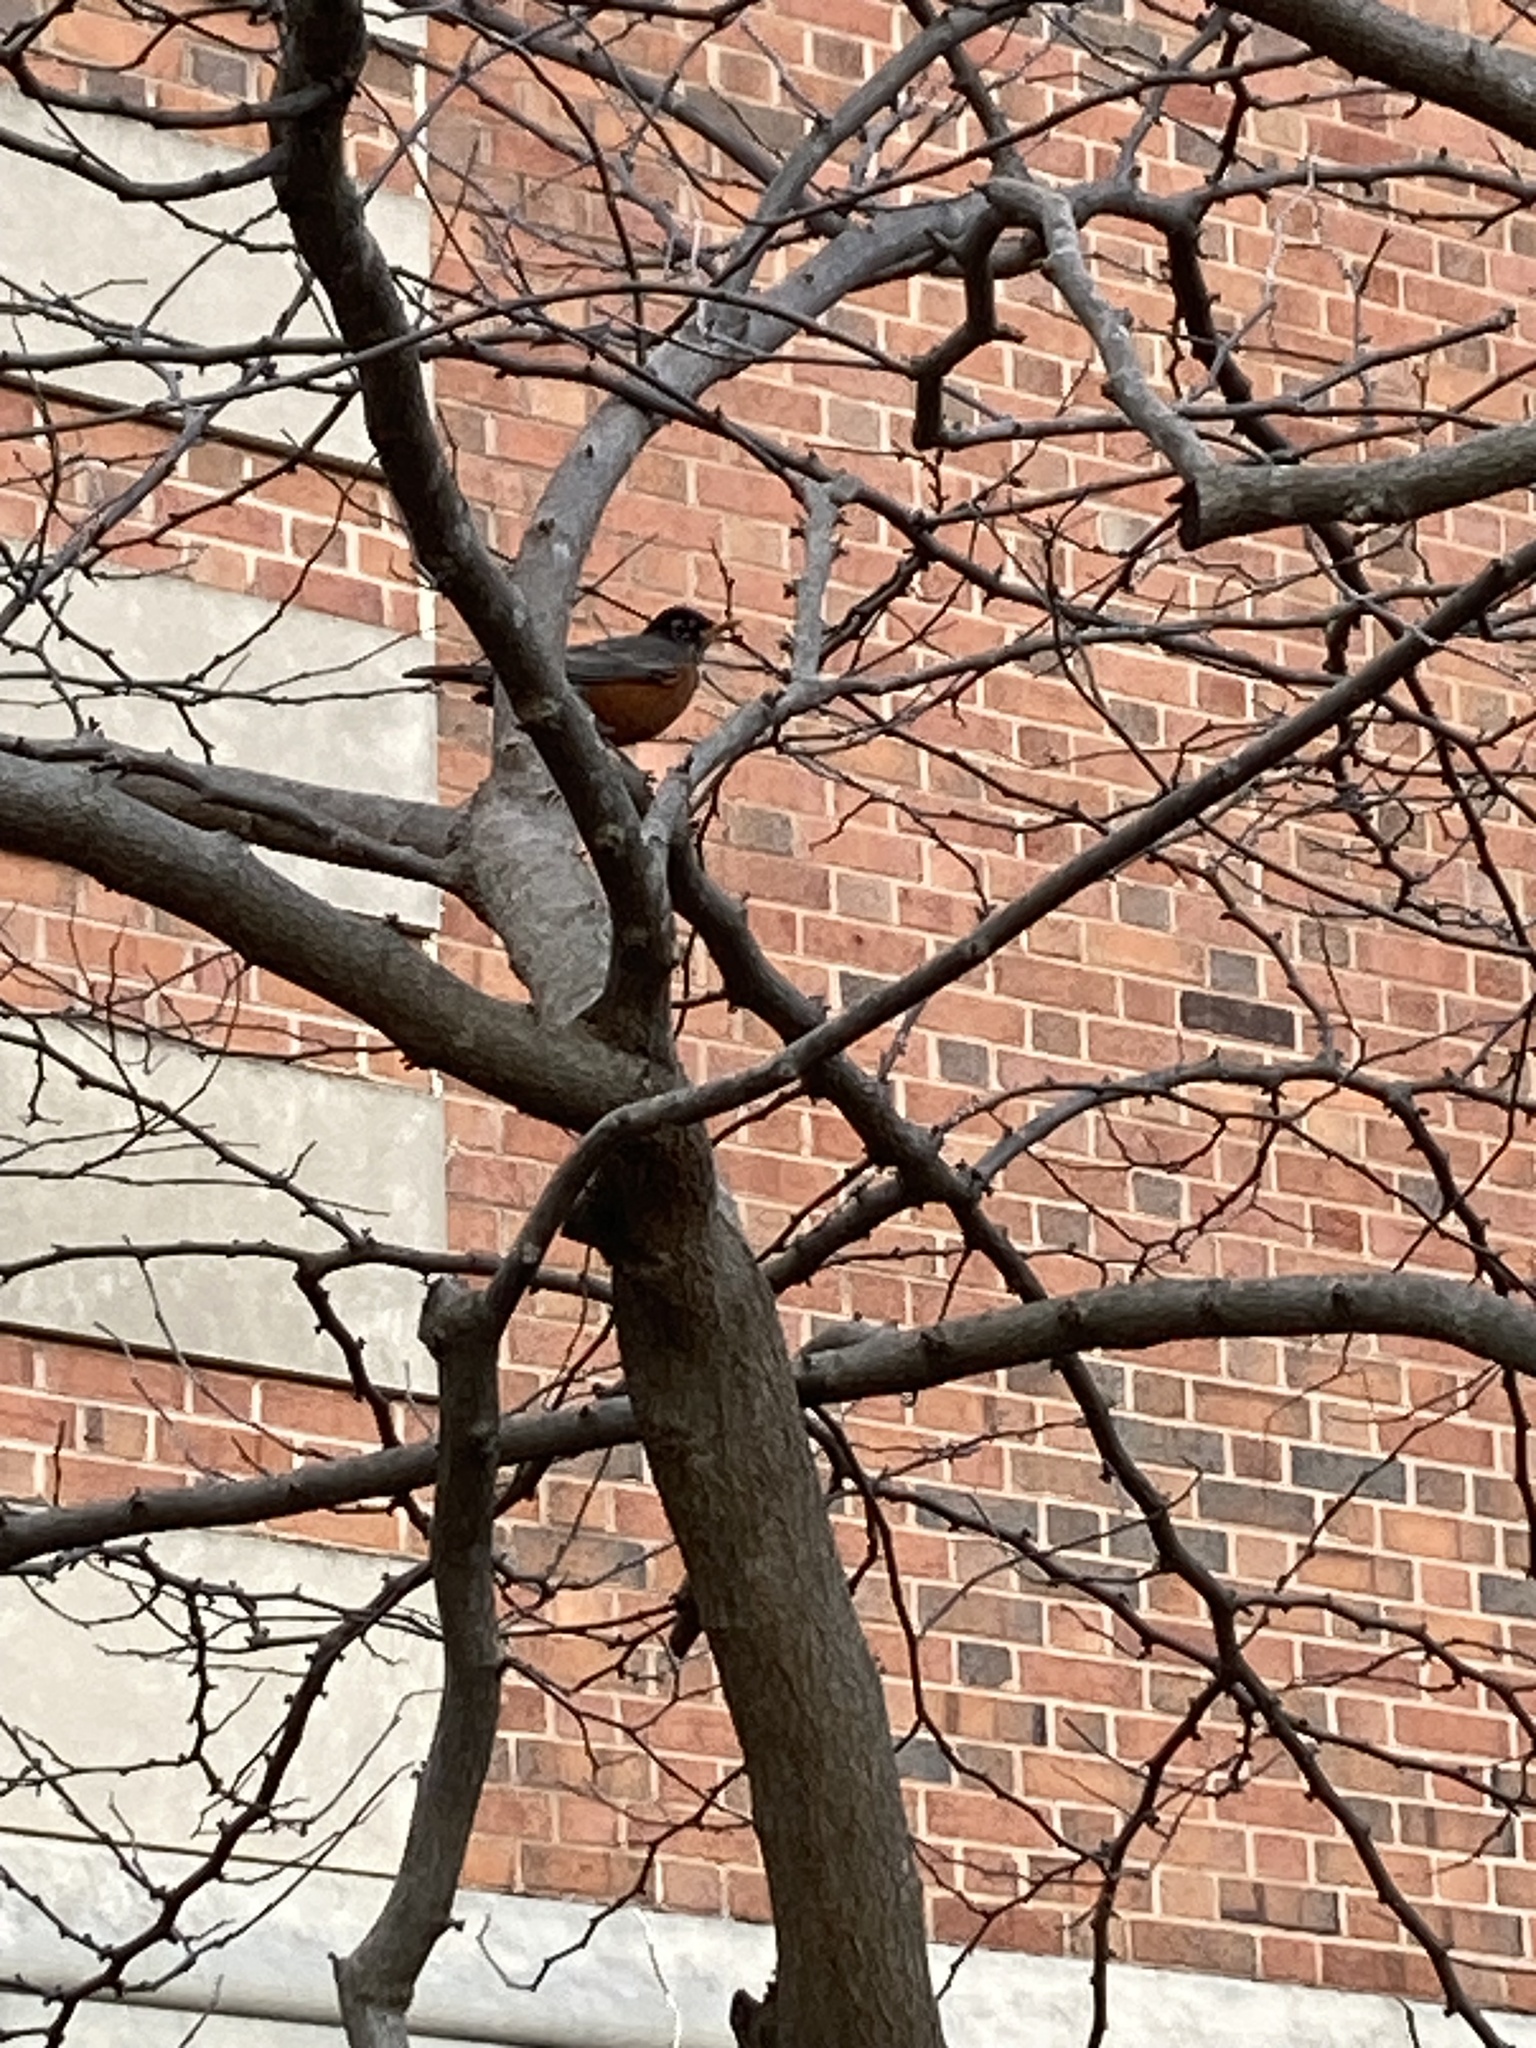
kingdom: Animalia
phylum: Chordata
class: Aves
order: Passeriformes
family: Turdidae
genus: Turdus
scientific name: Turdus migratorius
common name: American robin
